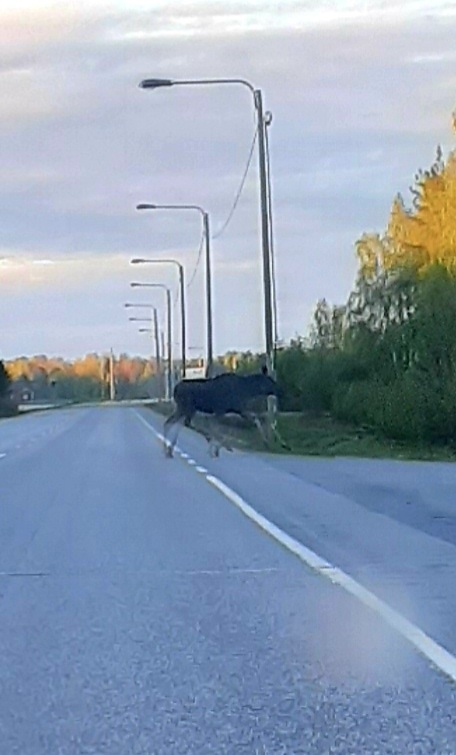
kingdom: Animalia
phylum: Chordata
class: Mammalia
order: Artiodactyla
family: Cervidae
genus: Alces
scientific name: Alces alces
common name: Moose
